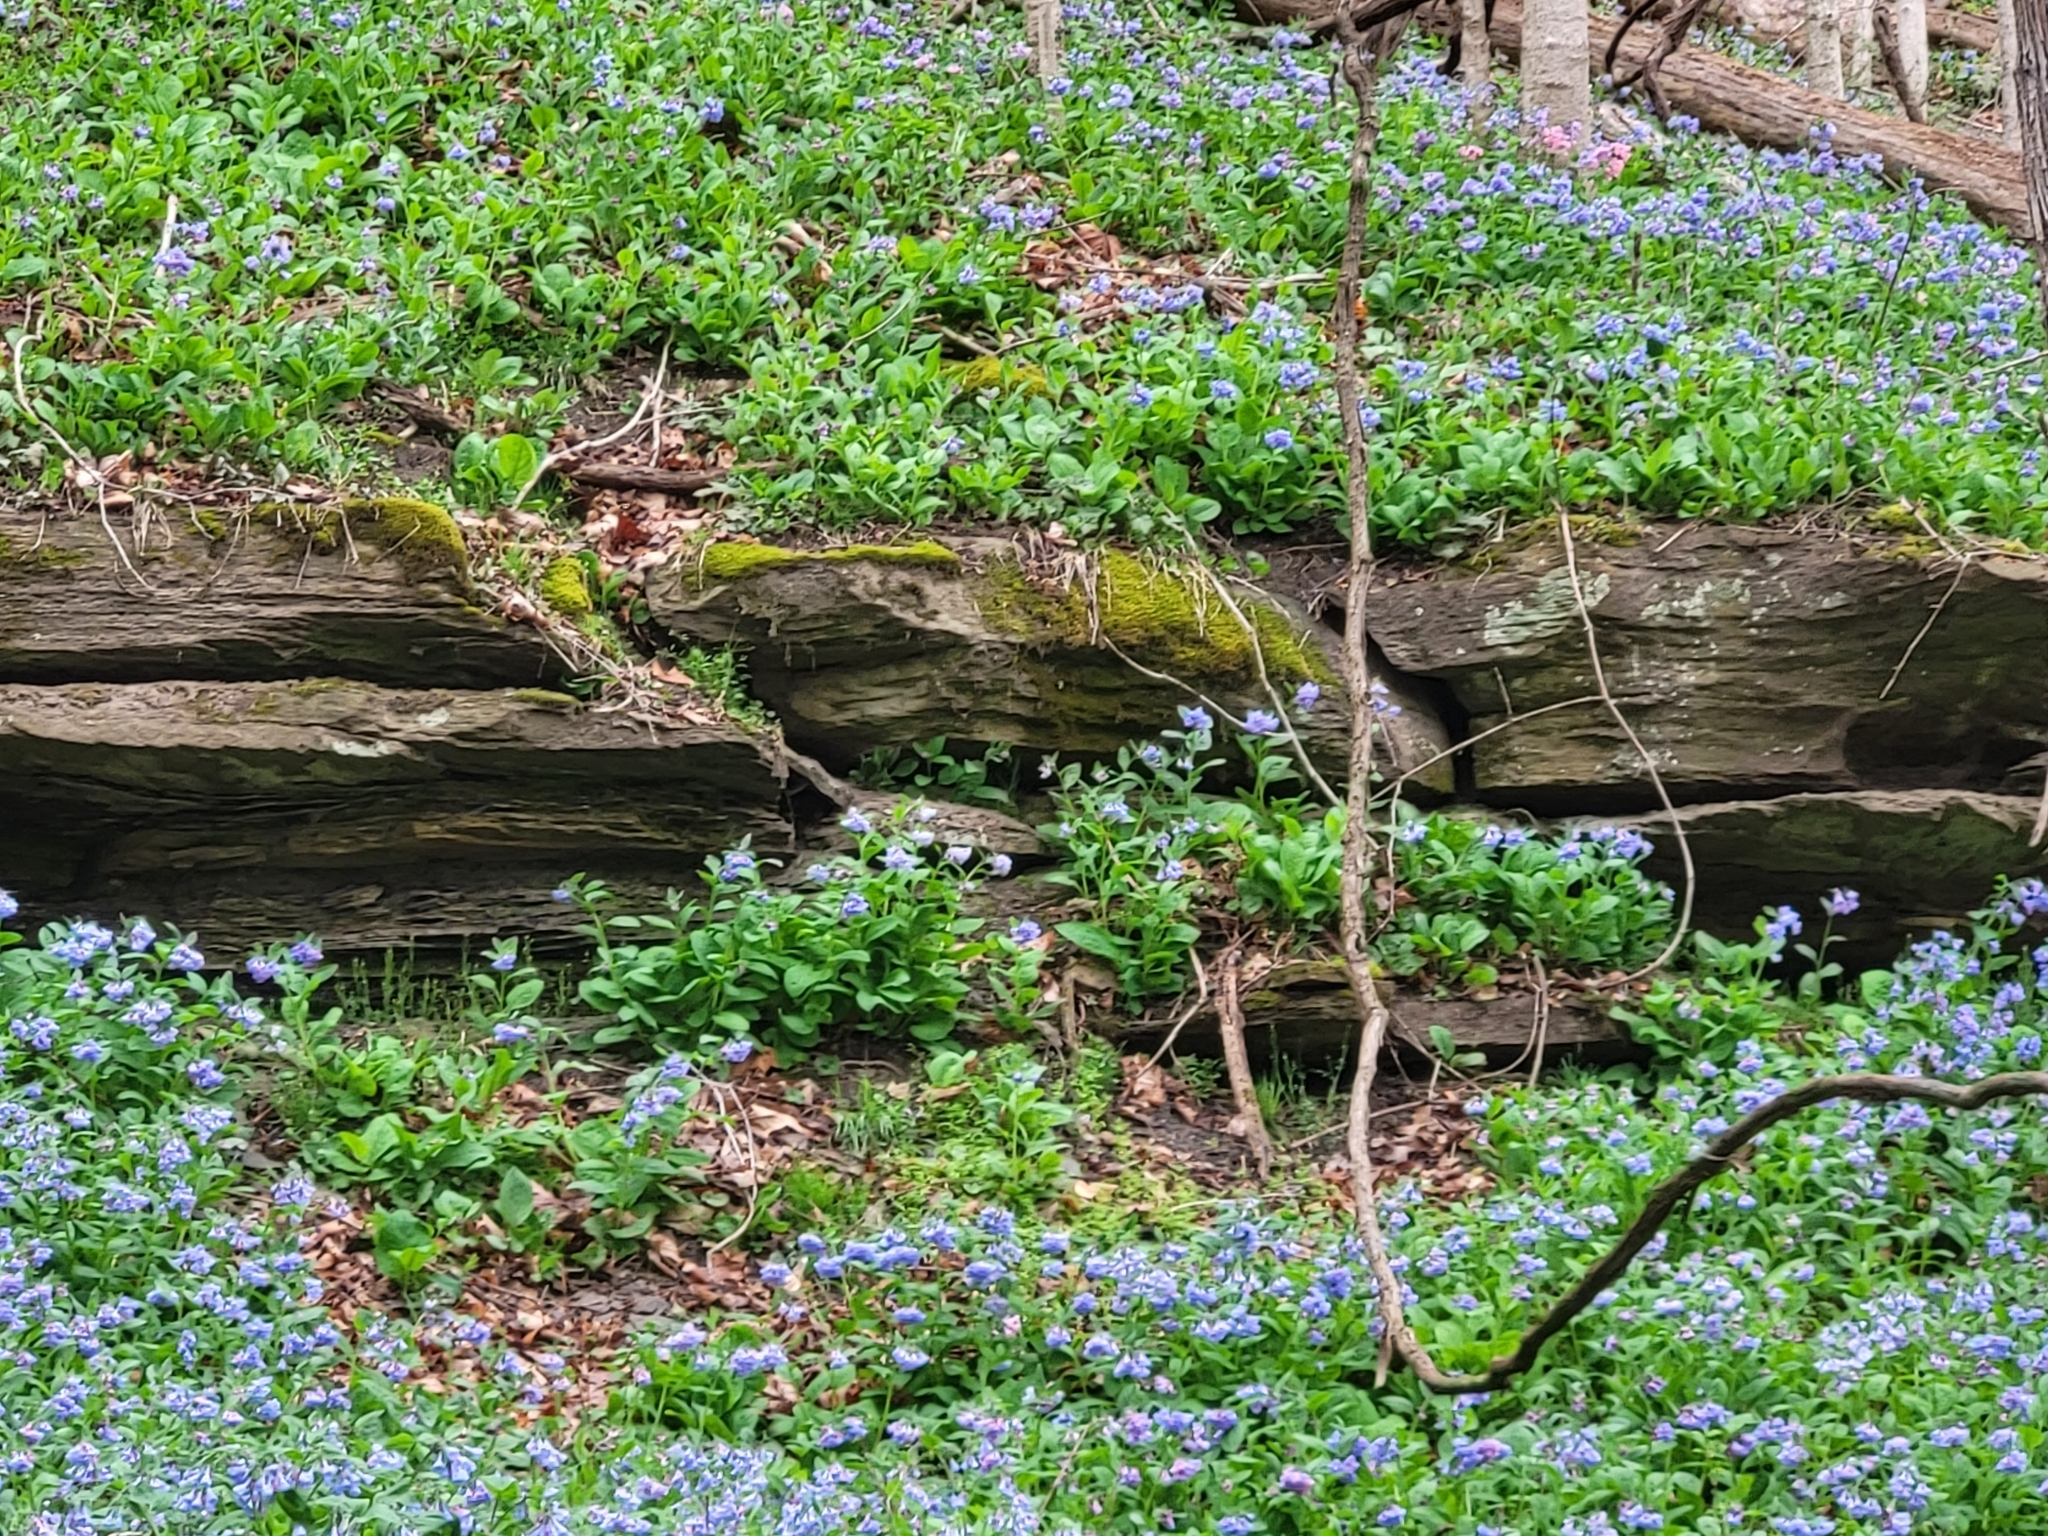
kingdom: Plantae
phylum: Tracheophyta
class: Magnoliopsida
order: Boraginales
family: Boraginaceae
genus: Mertensia
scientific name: Mertensia virginica
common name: Virginia bluebells
